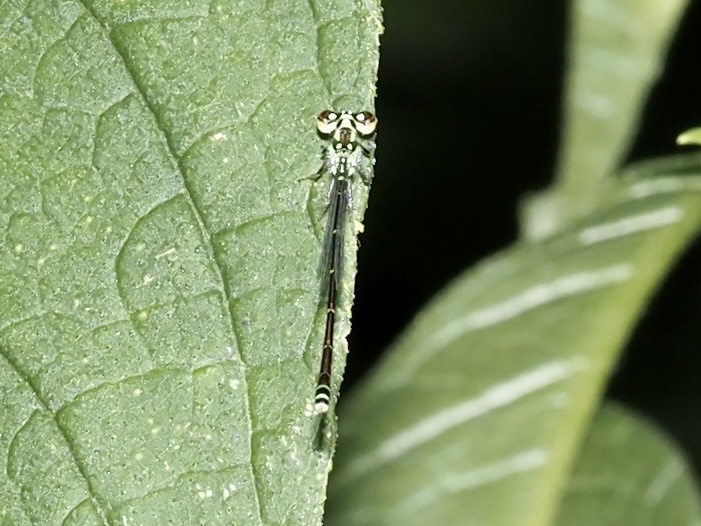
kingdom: Animalia
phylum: Arthropoda
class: Insecta
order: Odonata
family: Coenagrionidae
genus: Ischnura
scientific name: Ischnura posita
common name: Fragile forktail
